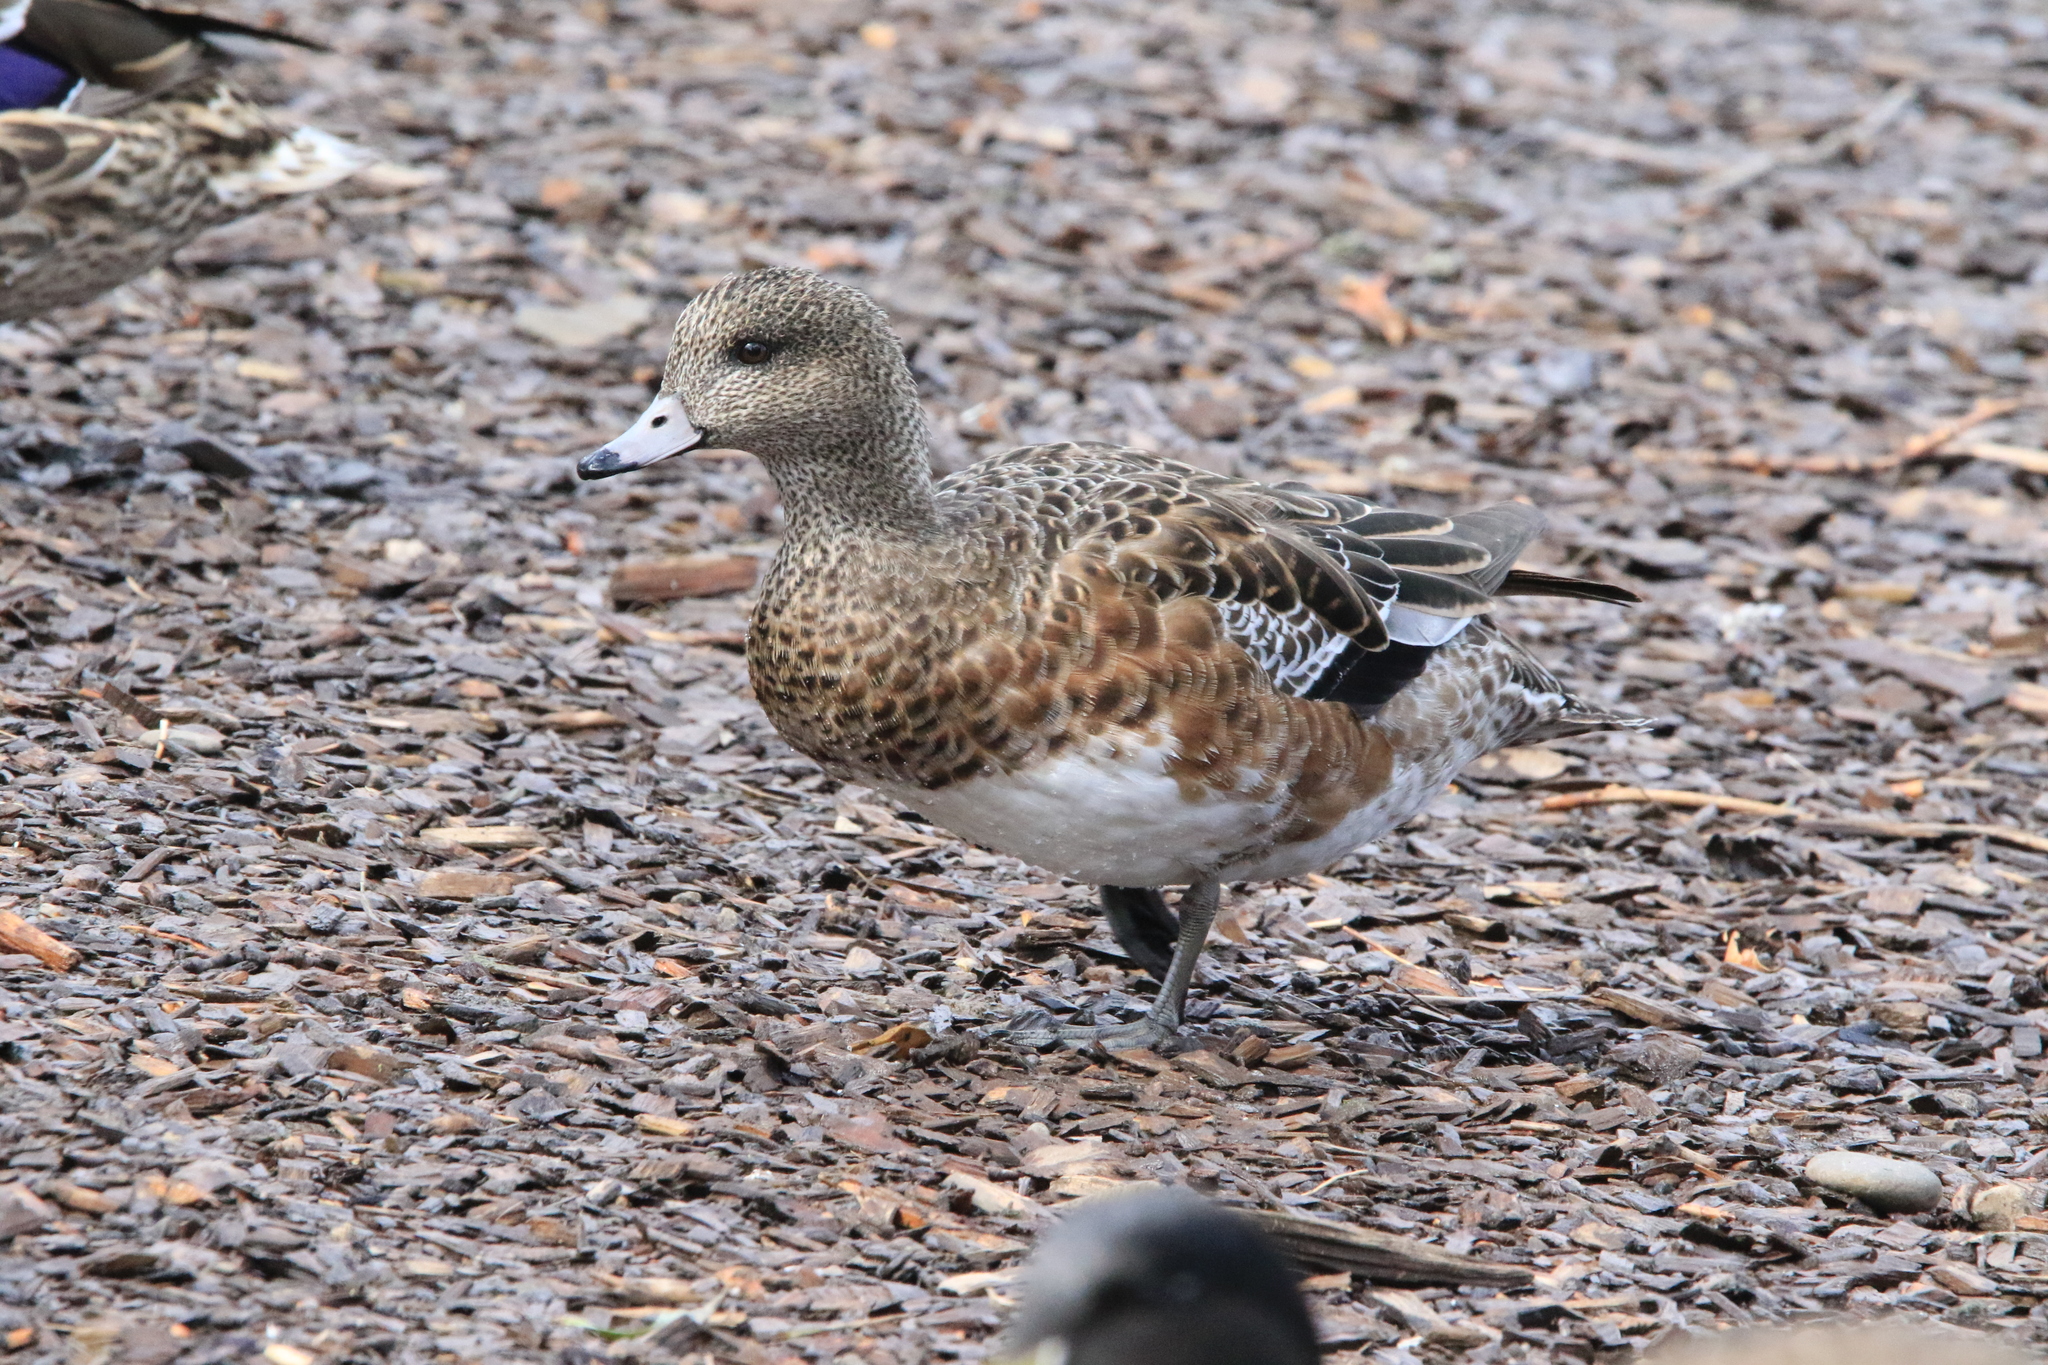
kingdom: Animalia
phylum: Chordata
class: Aves
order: Anseriformes
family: Anatidae
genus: Mareca
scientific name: Mareca americana
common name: American wigeon
